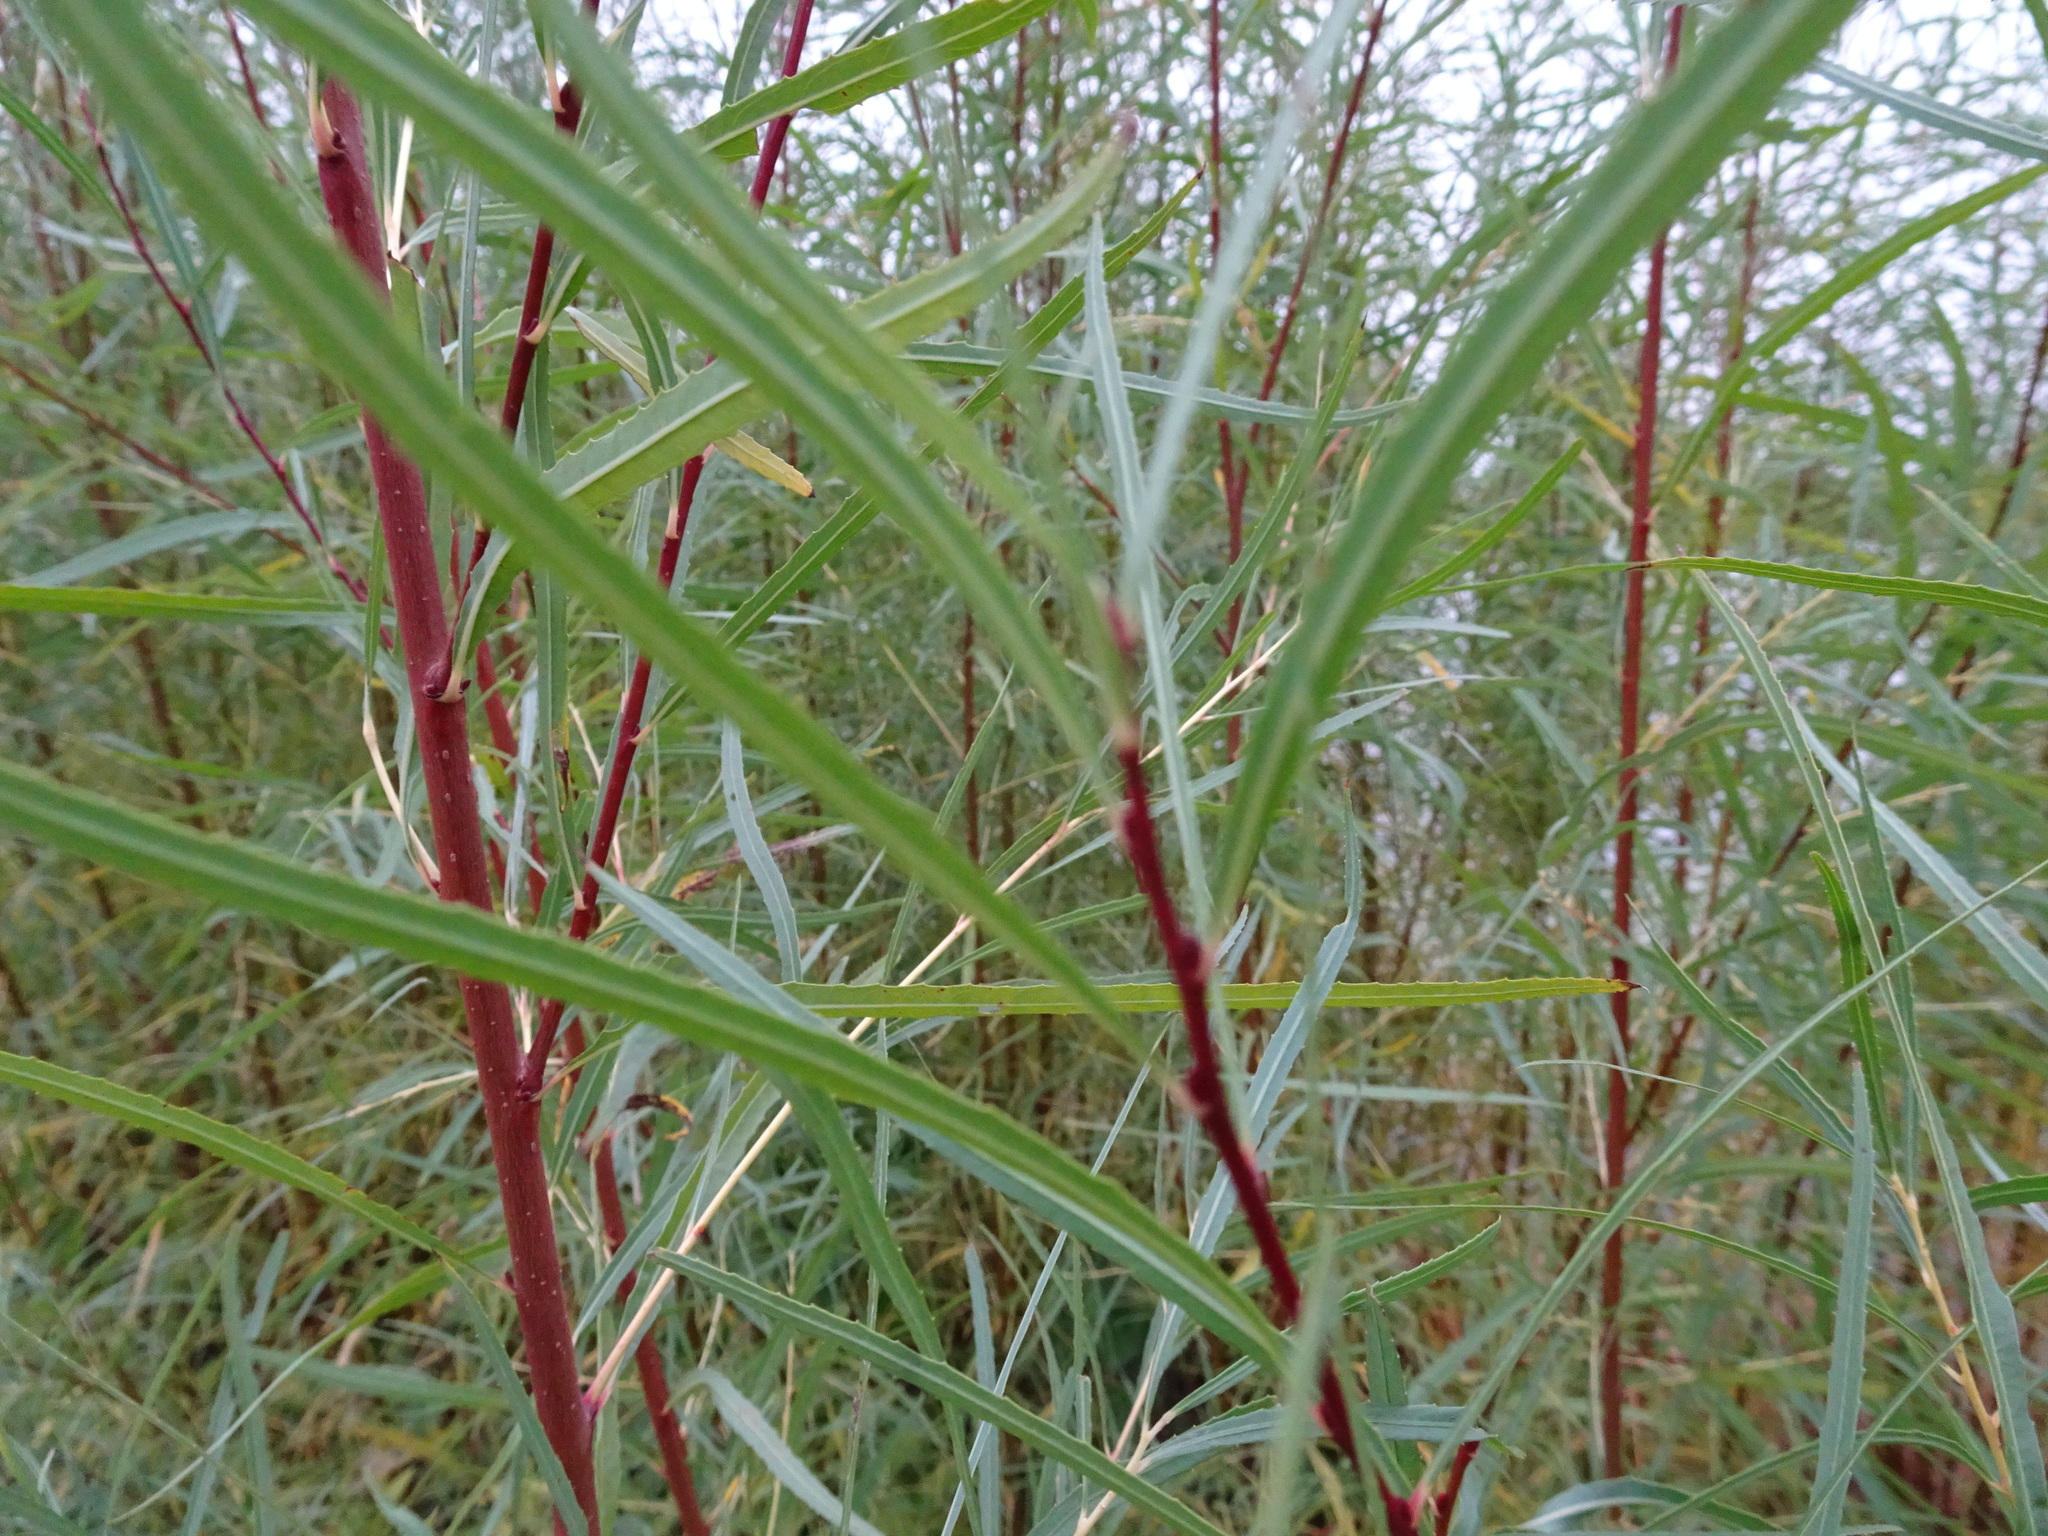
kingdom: Plantae
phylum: Tracheophyta
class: Magnoliopsida
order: Malpighiales
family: Salicaceae
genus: Salix
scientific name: Salix interior
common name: Sandbar willow
